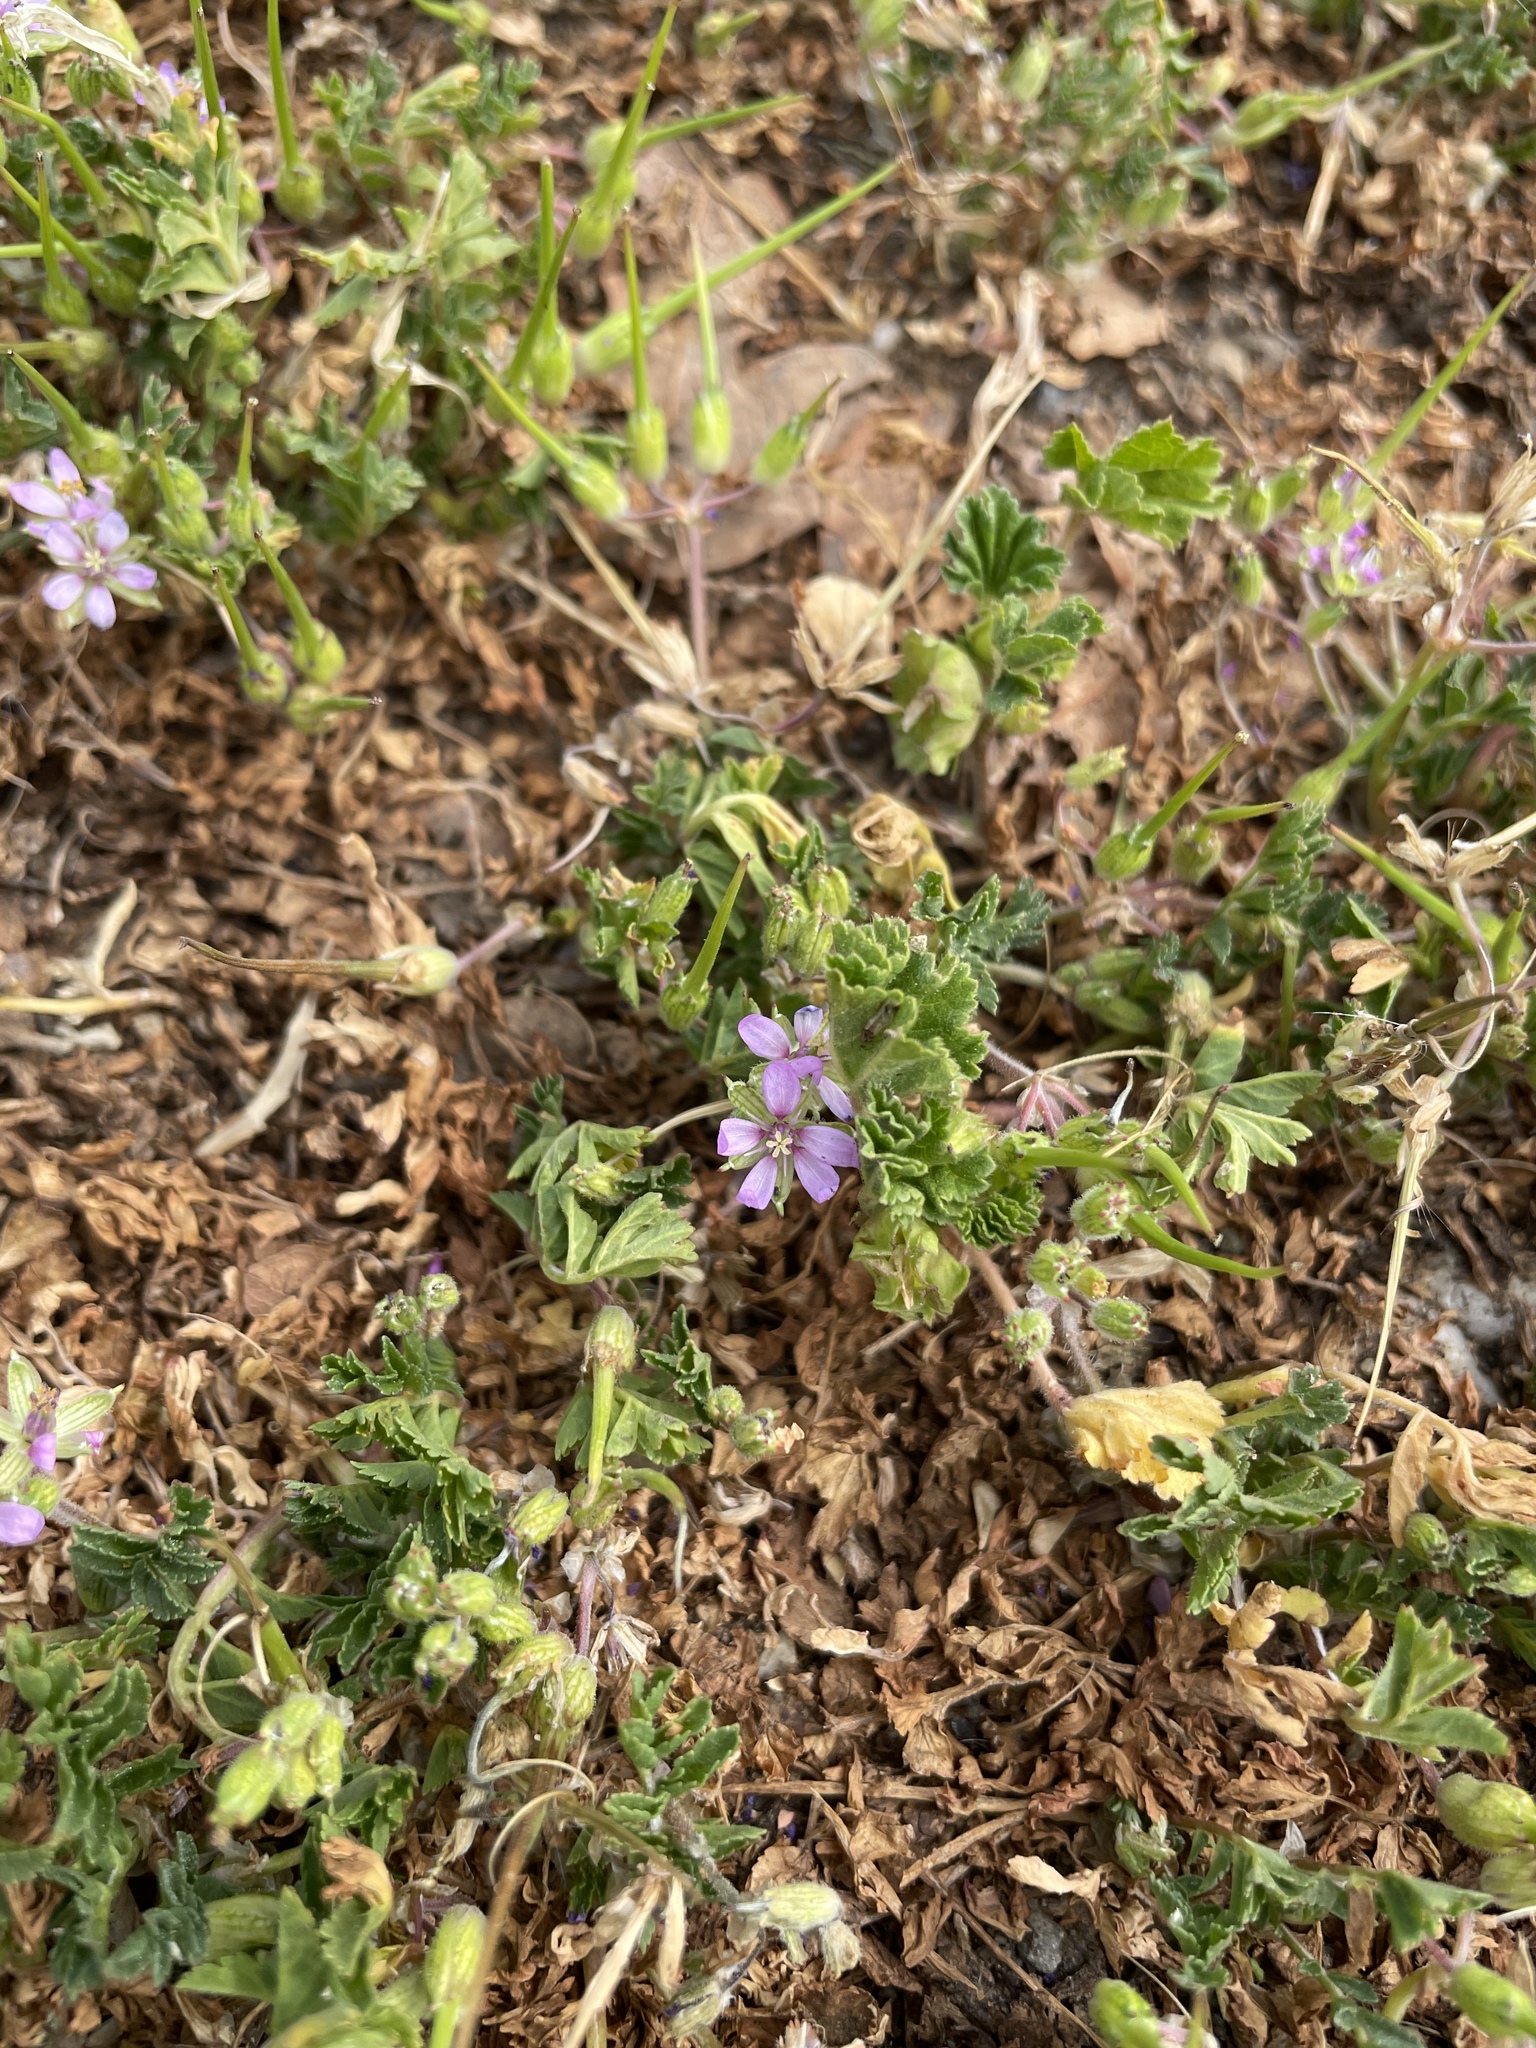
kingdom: Plantae
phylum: Tracheophyta
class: Magnoliopsida
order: Geraniales
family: Geraniaceae
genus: Erodium
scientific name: Erodium moschatum
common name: Musk stork's-bill
